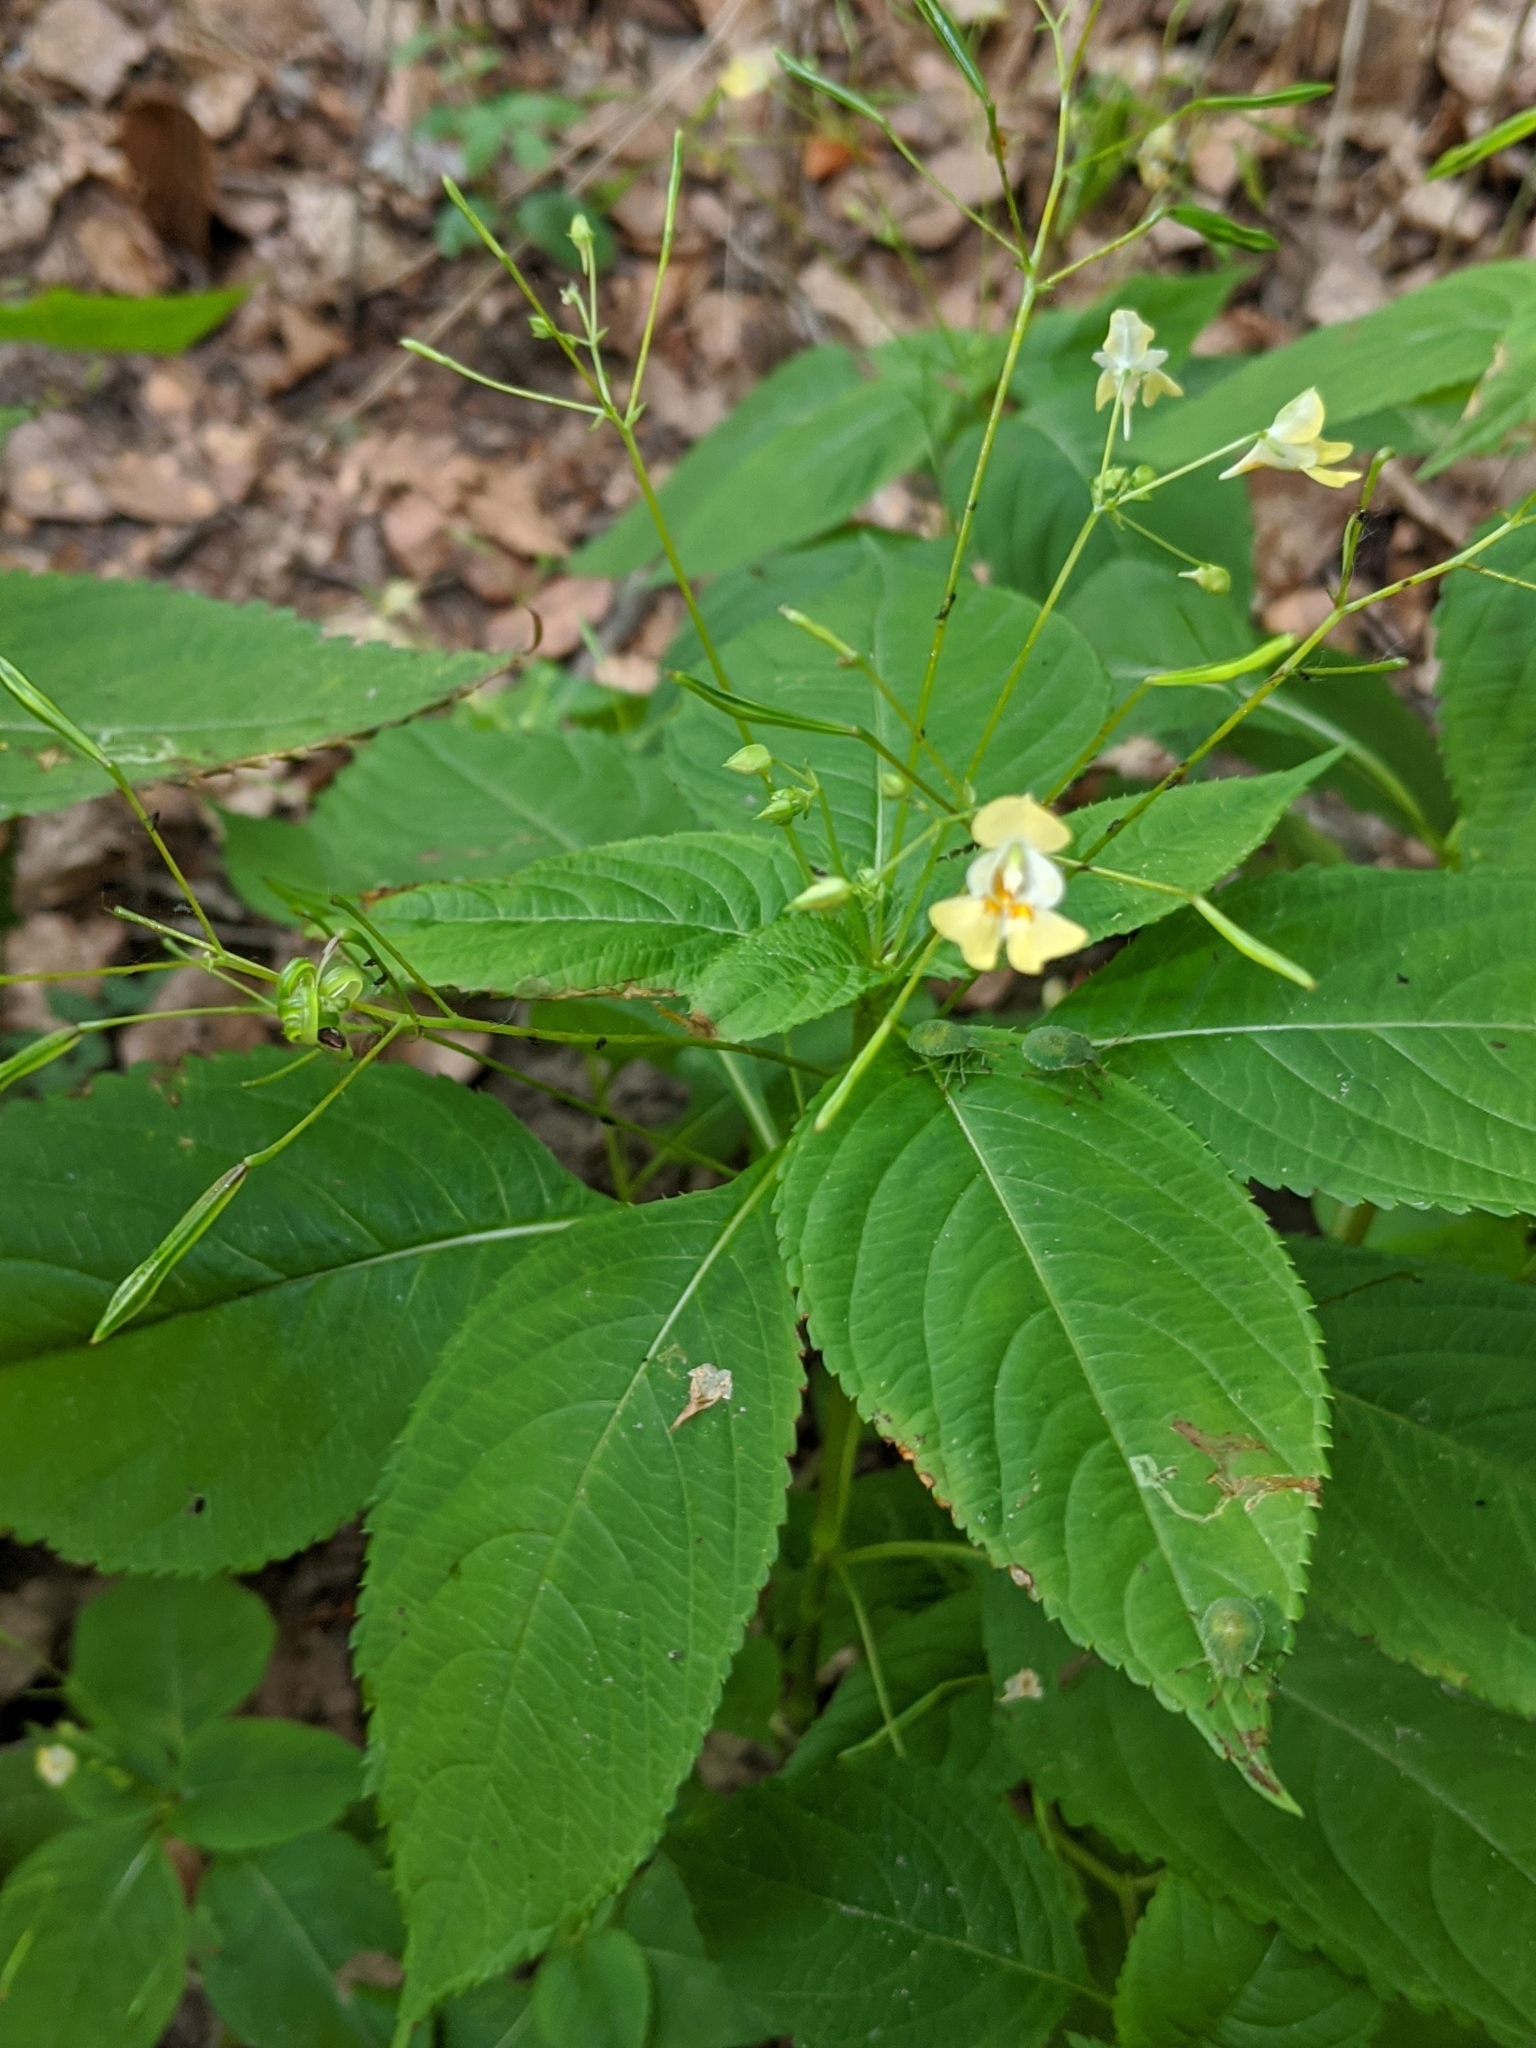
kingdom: Plantae
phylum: Tracheophyta
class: Magnoliopsida
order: Ericales
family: Balsaminaceae
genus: Impatiens
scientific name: Impatiens parviflora
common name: Small balsam
